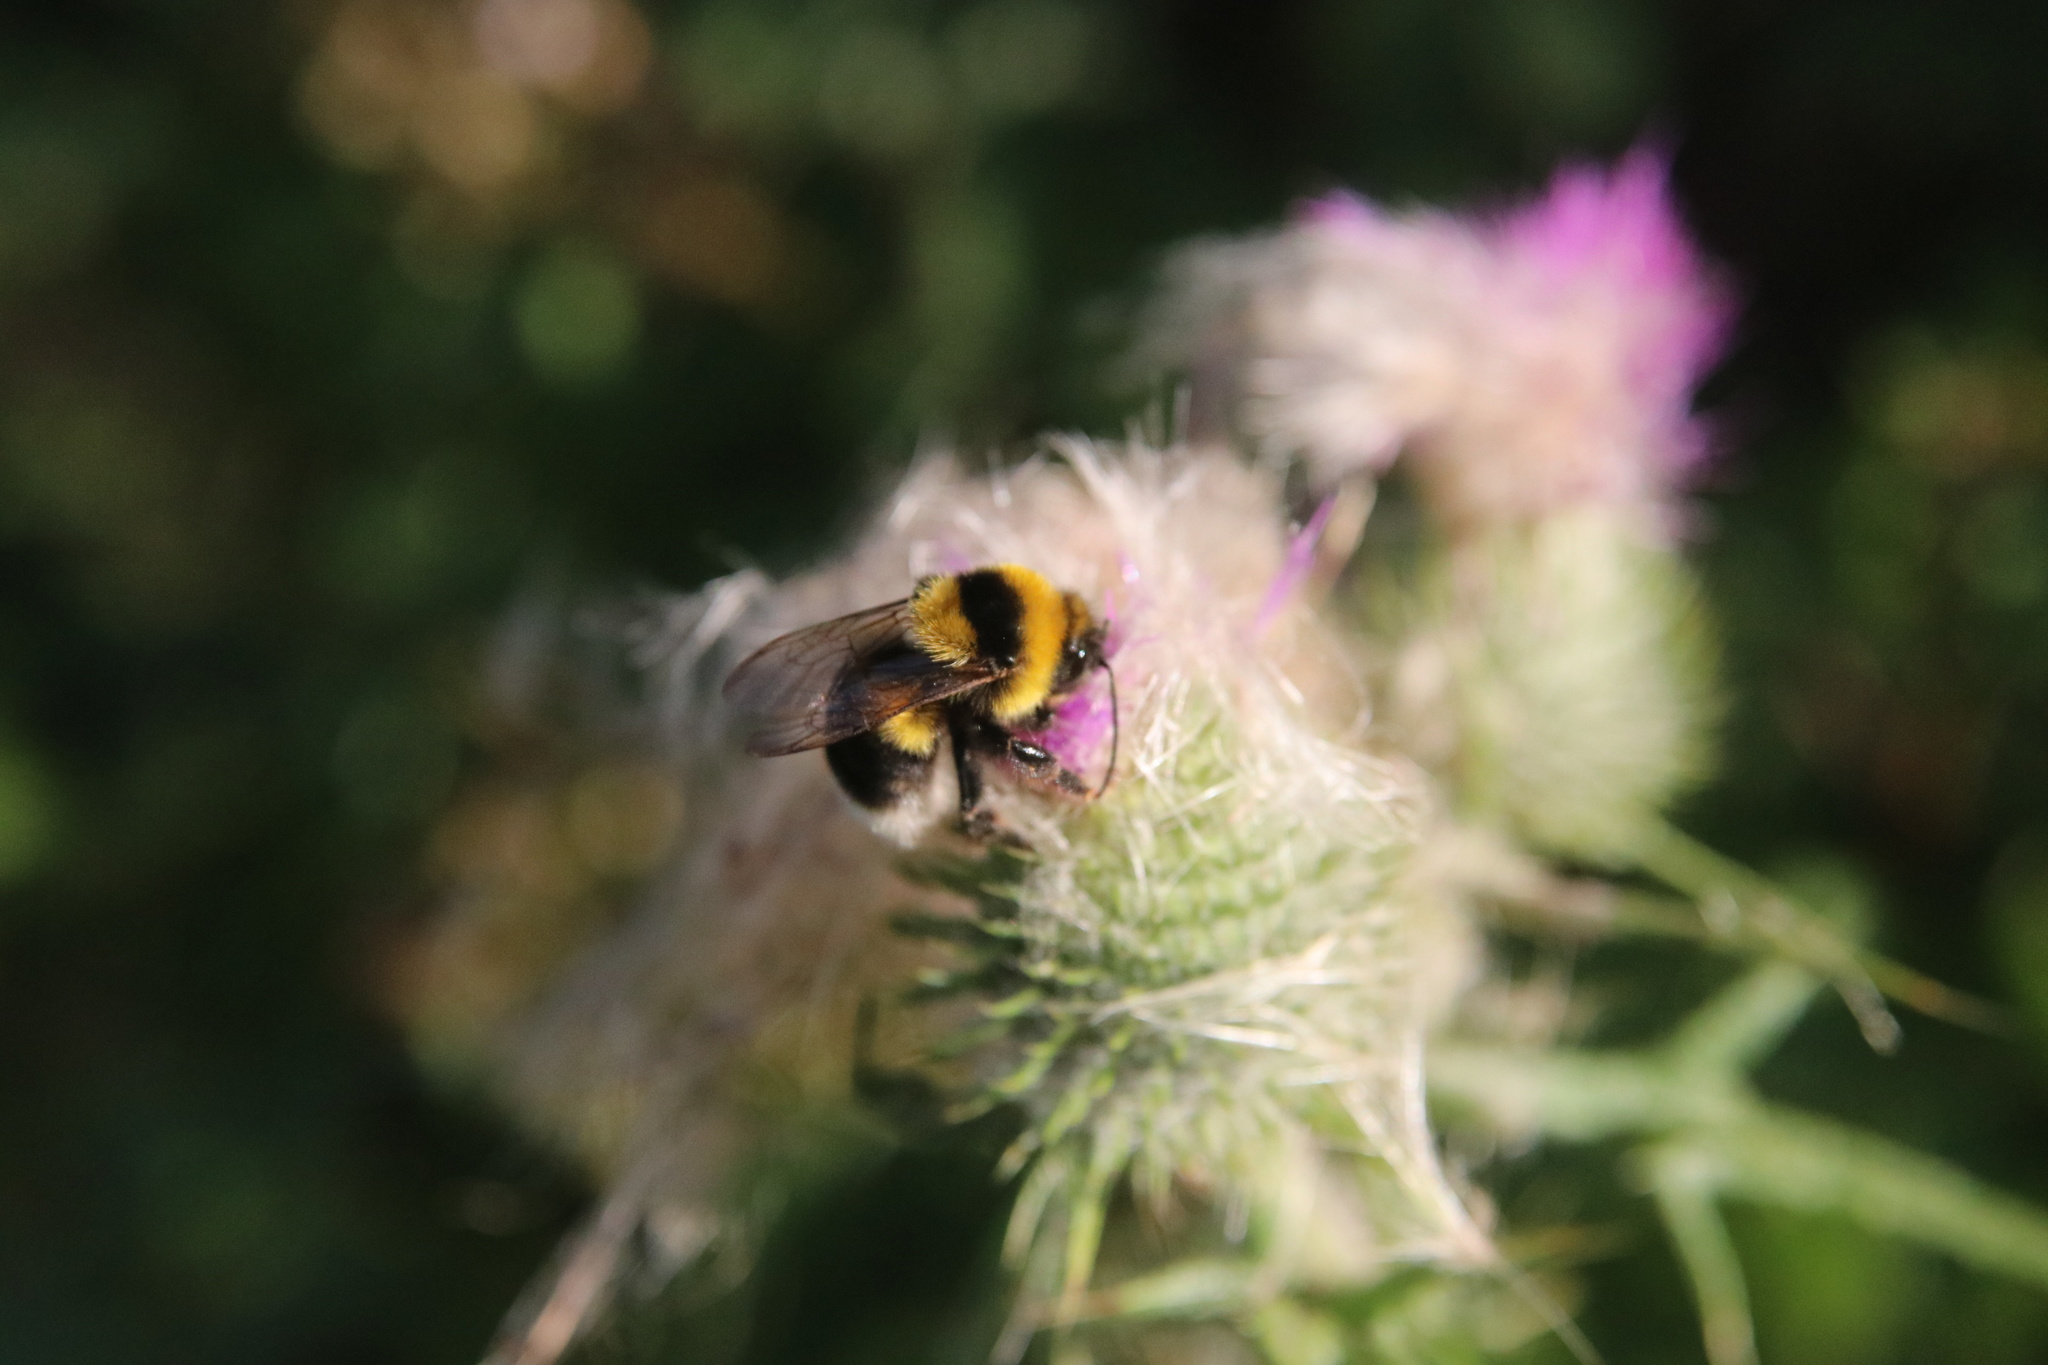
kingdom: Animalia
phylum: Arthropoda
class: Insecta
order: Hymenoptera
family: Apidae
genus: Bombus
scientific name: Bombus ruderatus
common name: Large garden bumblebee
